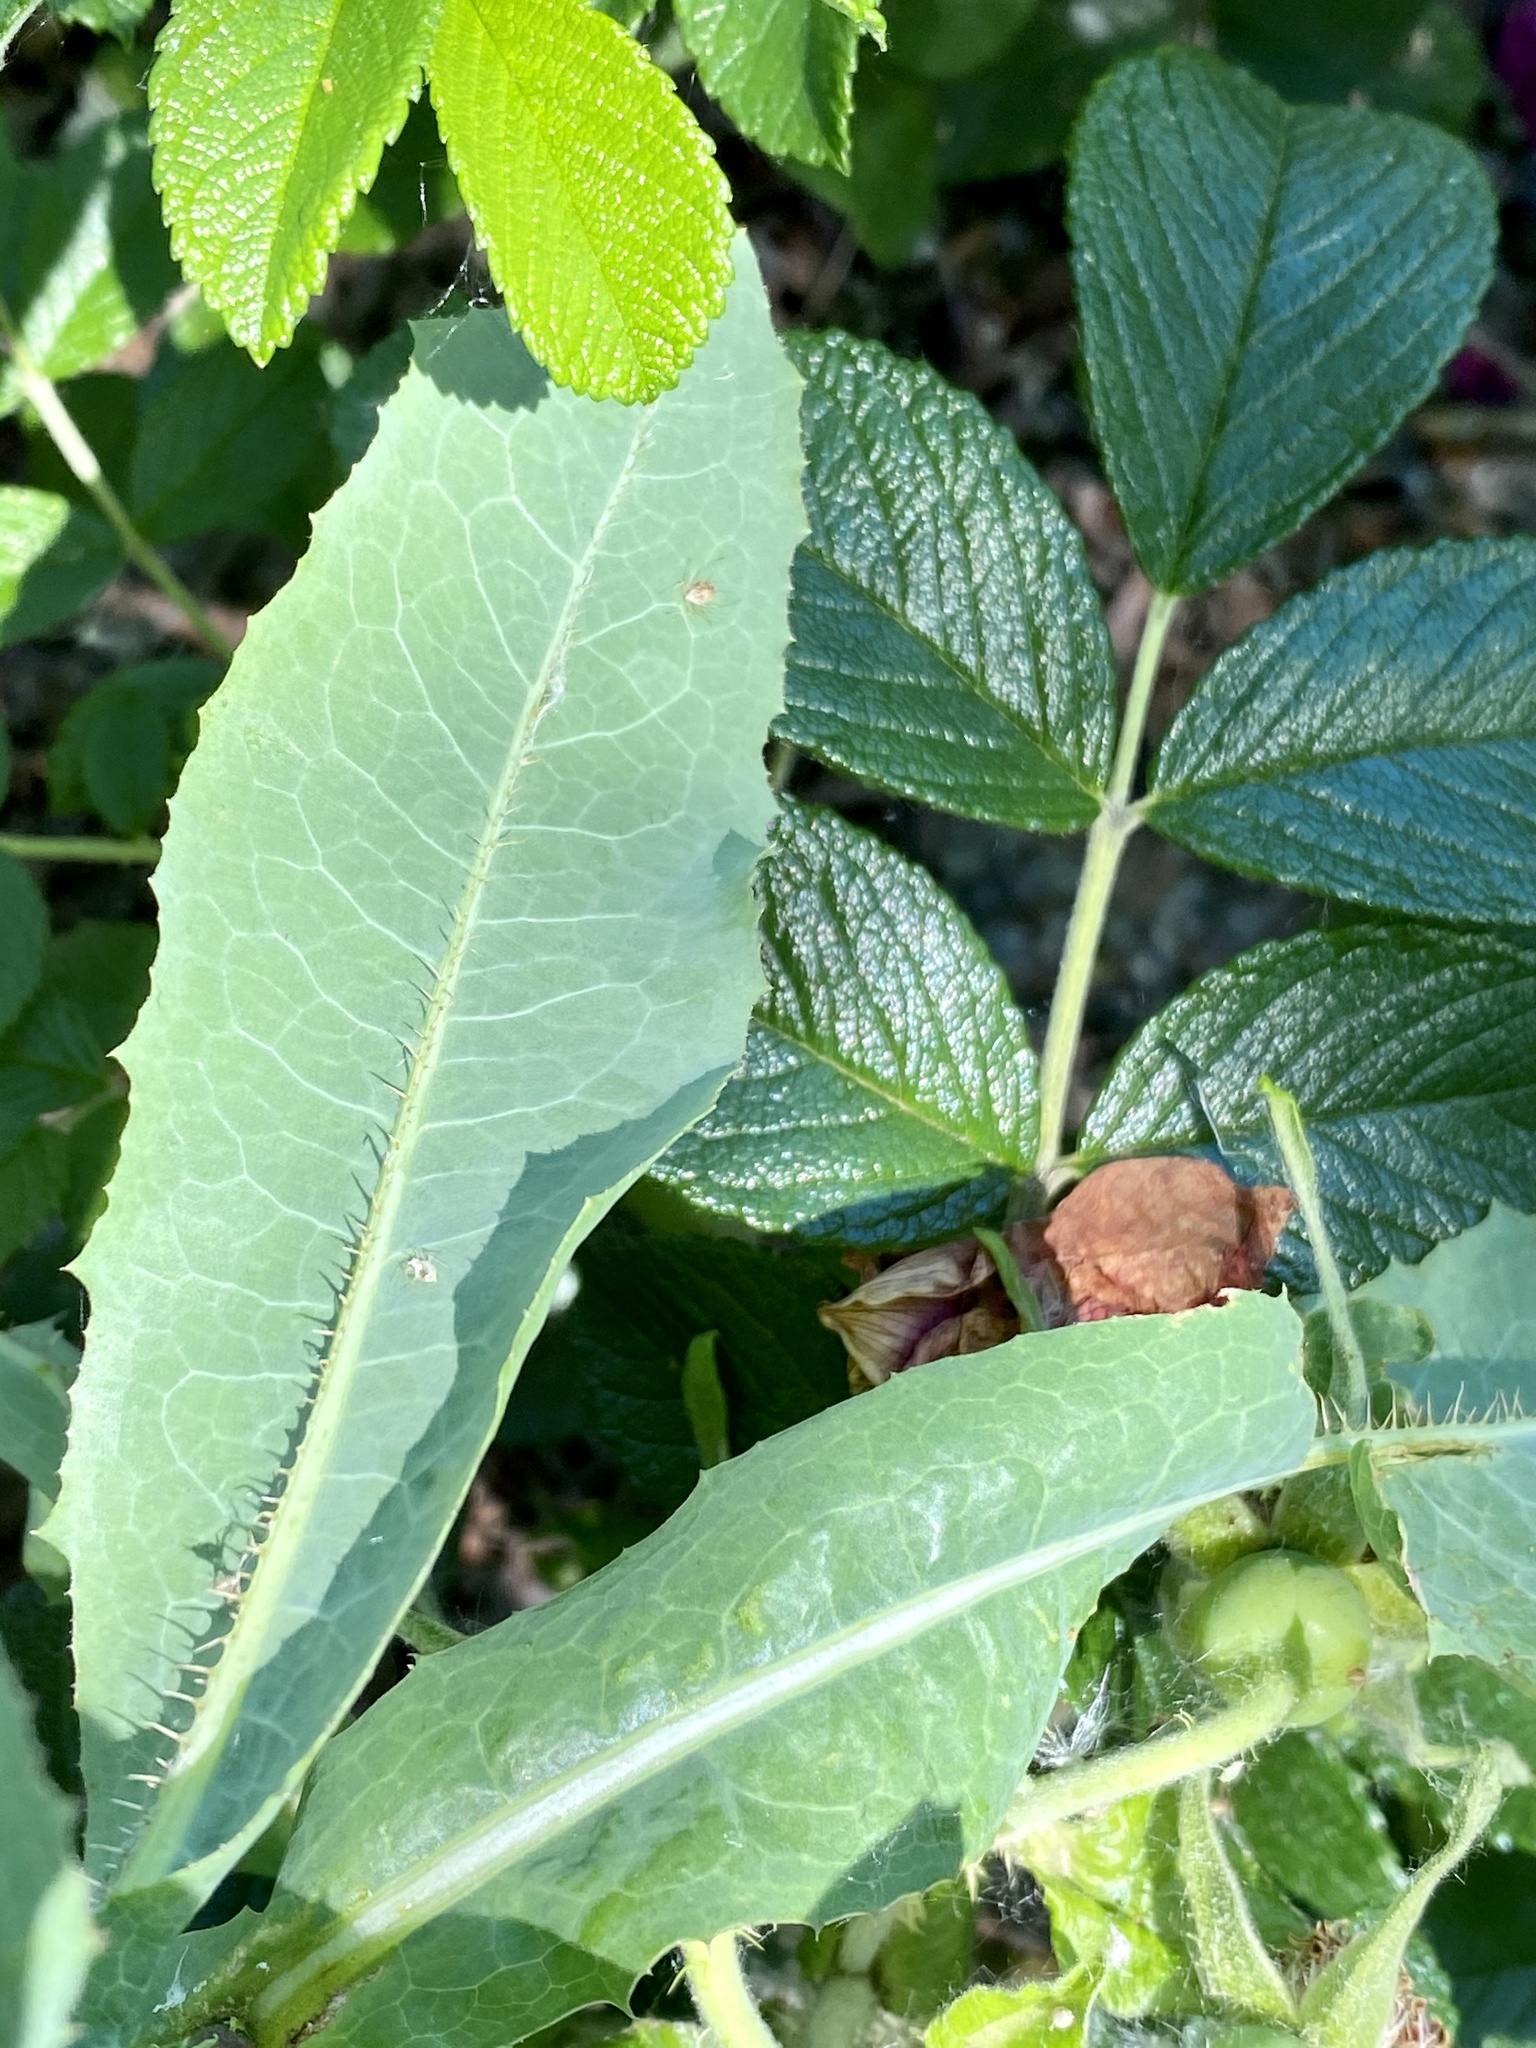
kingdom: Plantae
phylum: Tracheophyta
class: Magnoliopsida
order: Asterales
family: Asteraceae
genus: Lactuca
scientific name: Lactuca serriola
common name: Prickly lettuce
